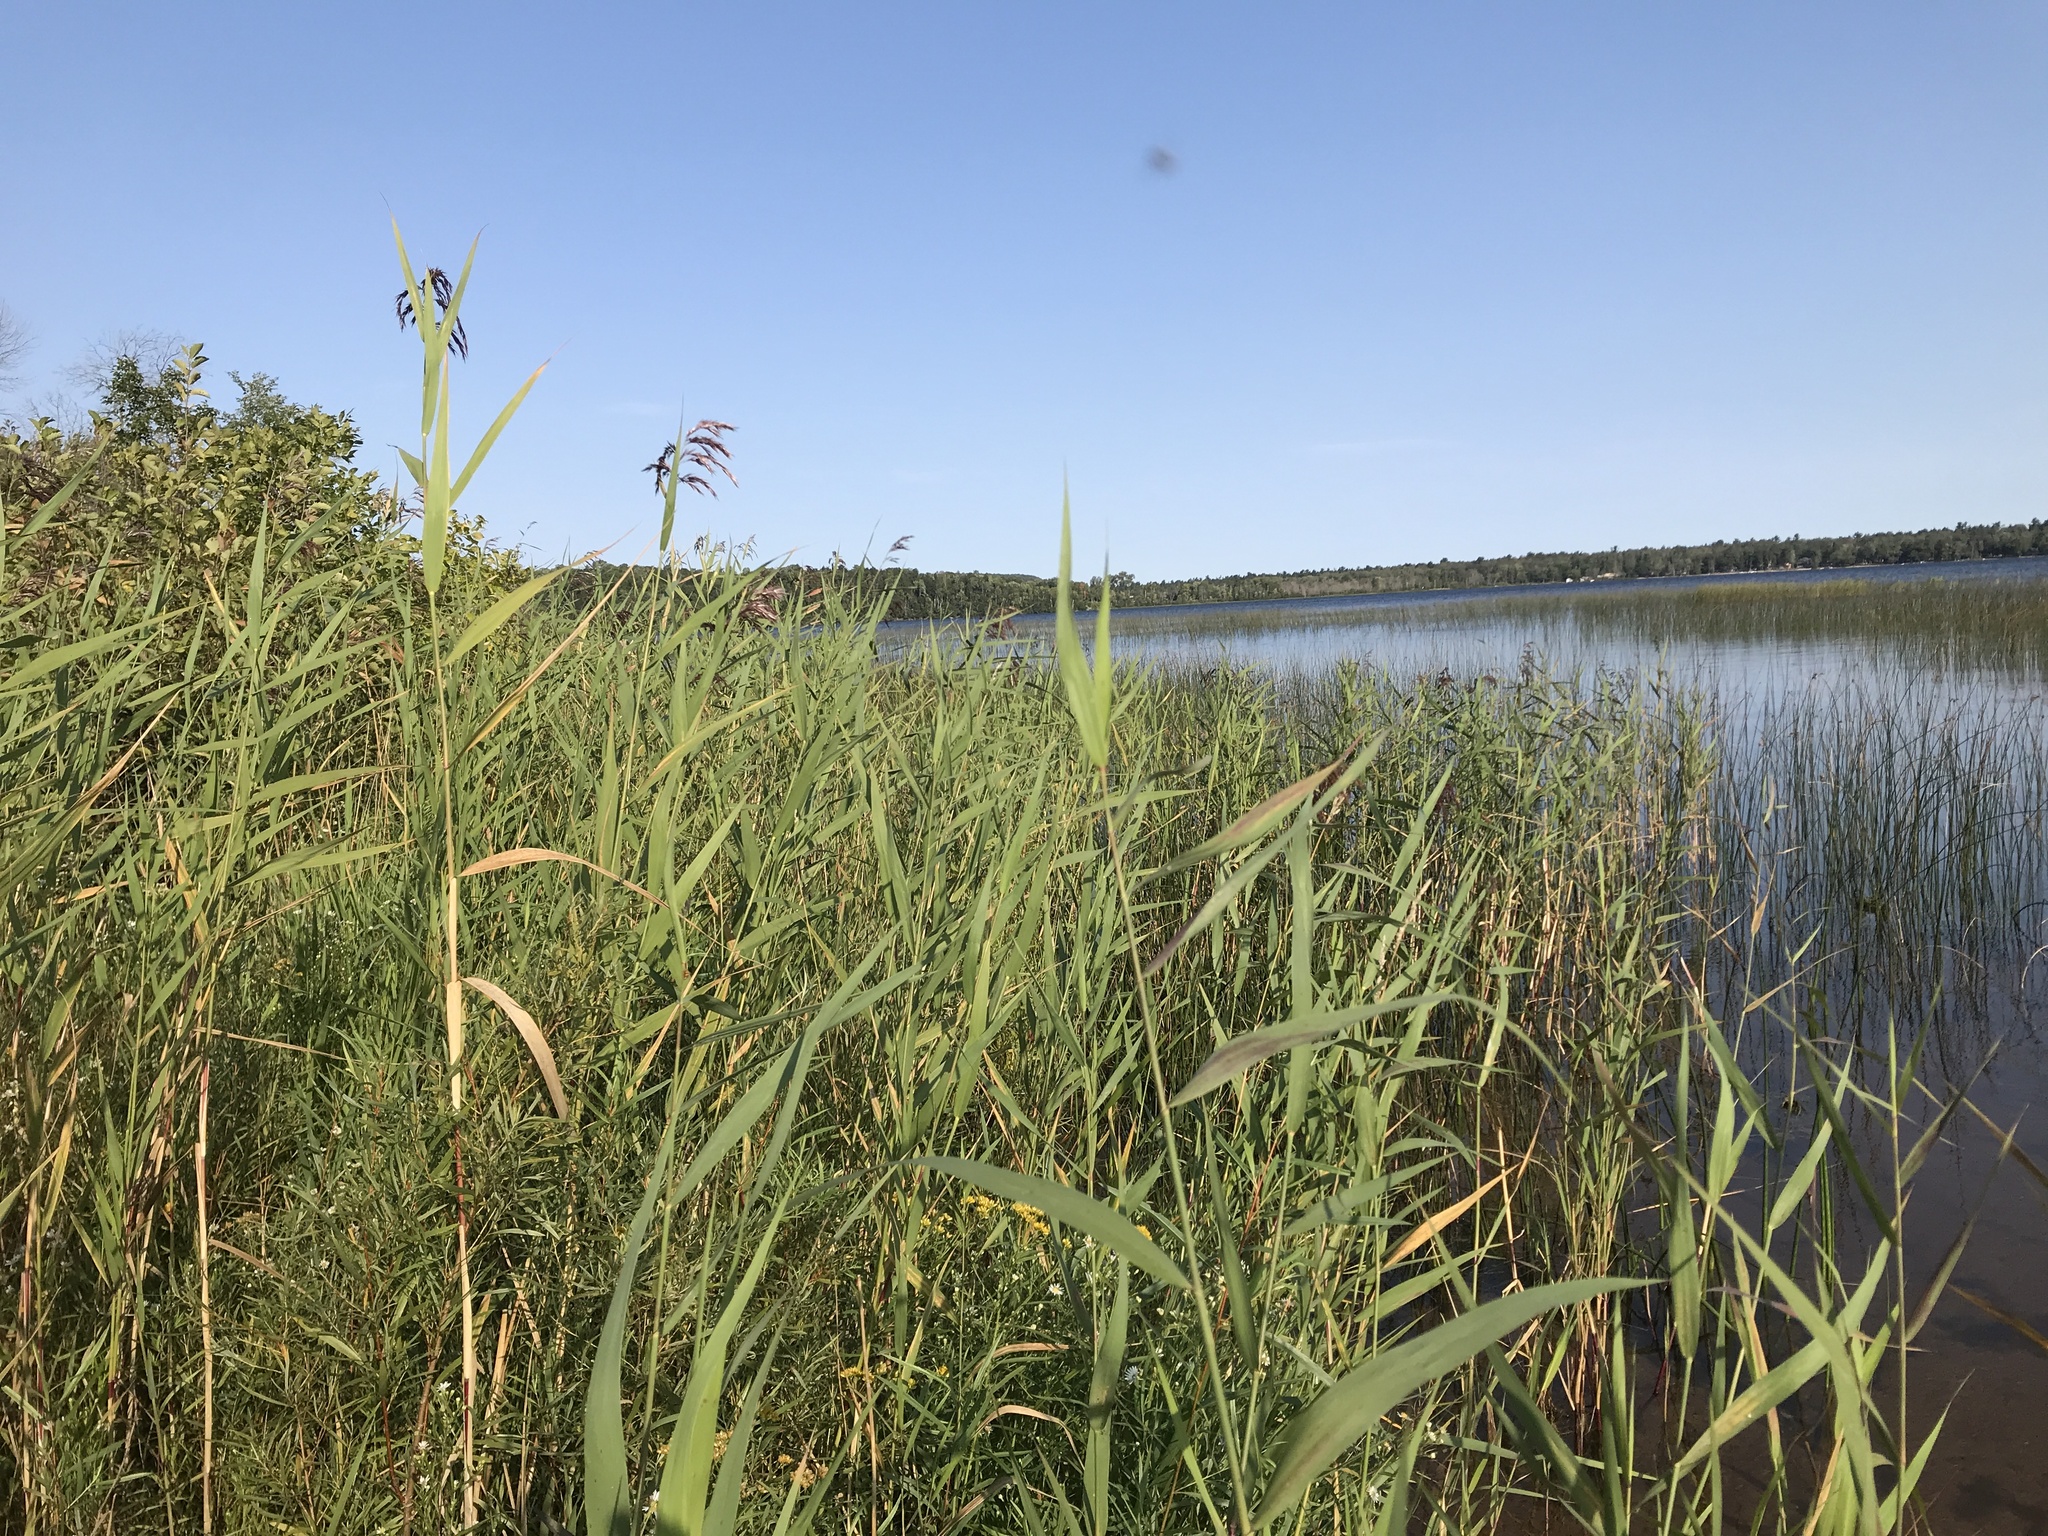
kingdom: Plantae
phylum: Tracheophyta
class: Liliopsida
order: Poales
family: Poaceae
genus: Phragmites
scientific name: Phragmites australis
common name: Common reed
